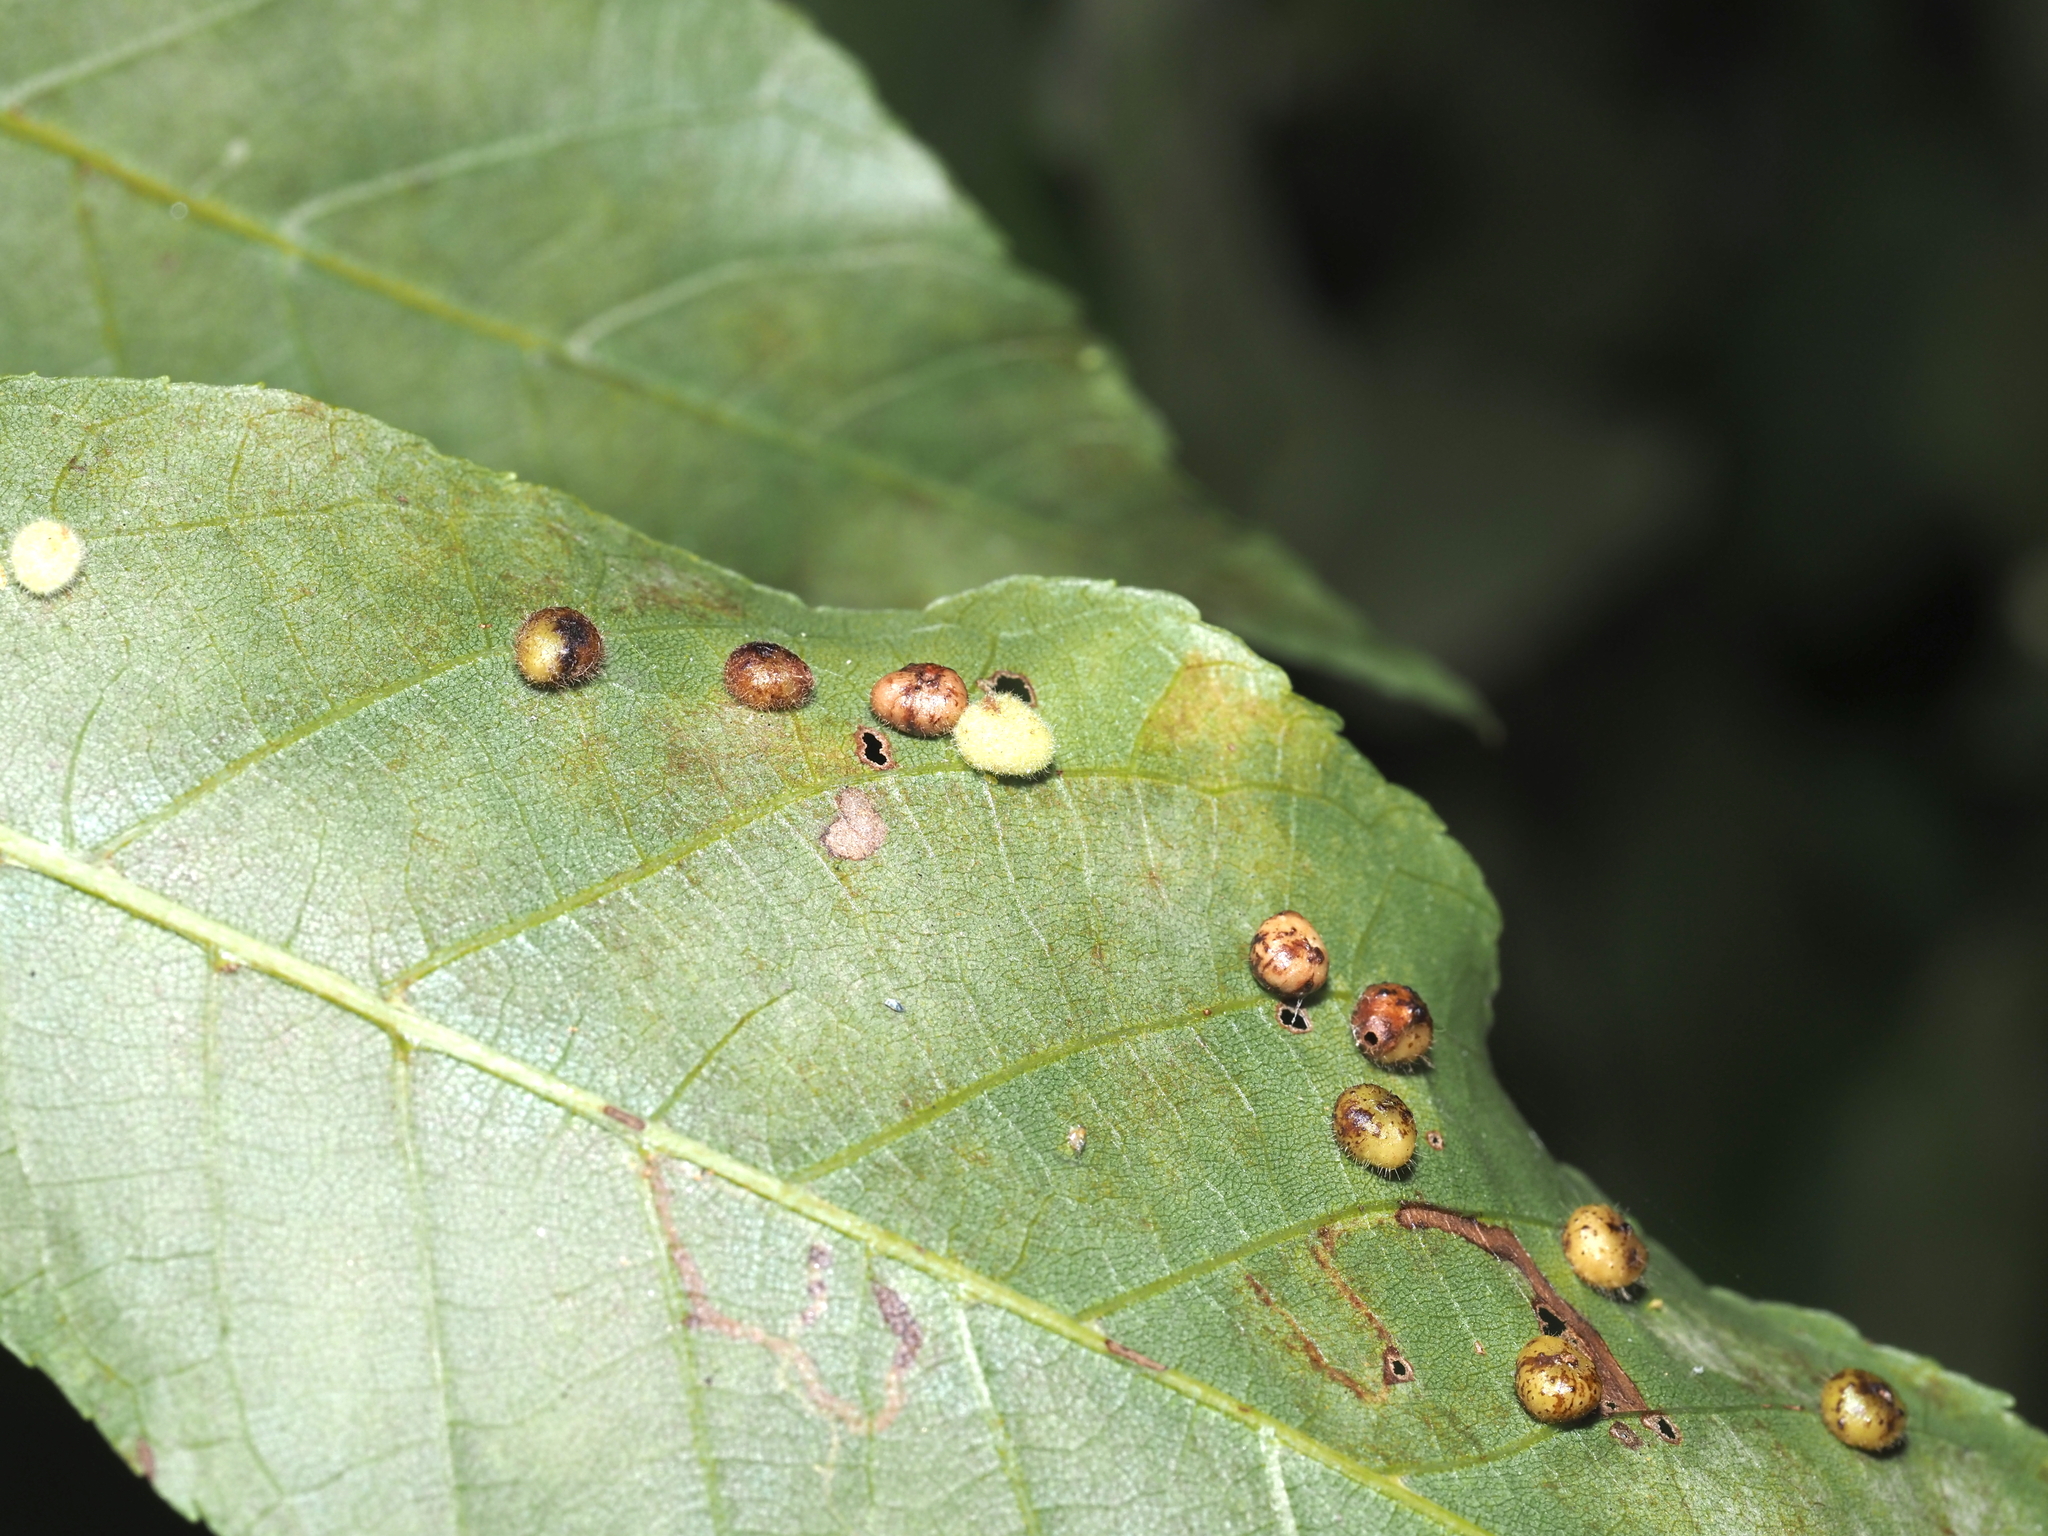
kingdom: Animalia
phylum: Arthropoda
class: Insecta
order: Diptera
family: Cecidomyiidae
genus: Caryomyia
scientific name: Caryomyia thompsoni
